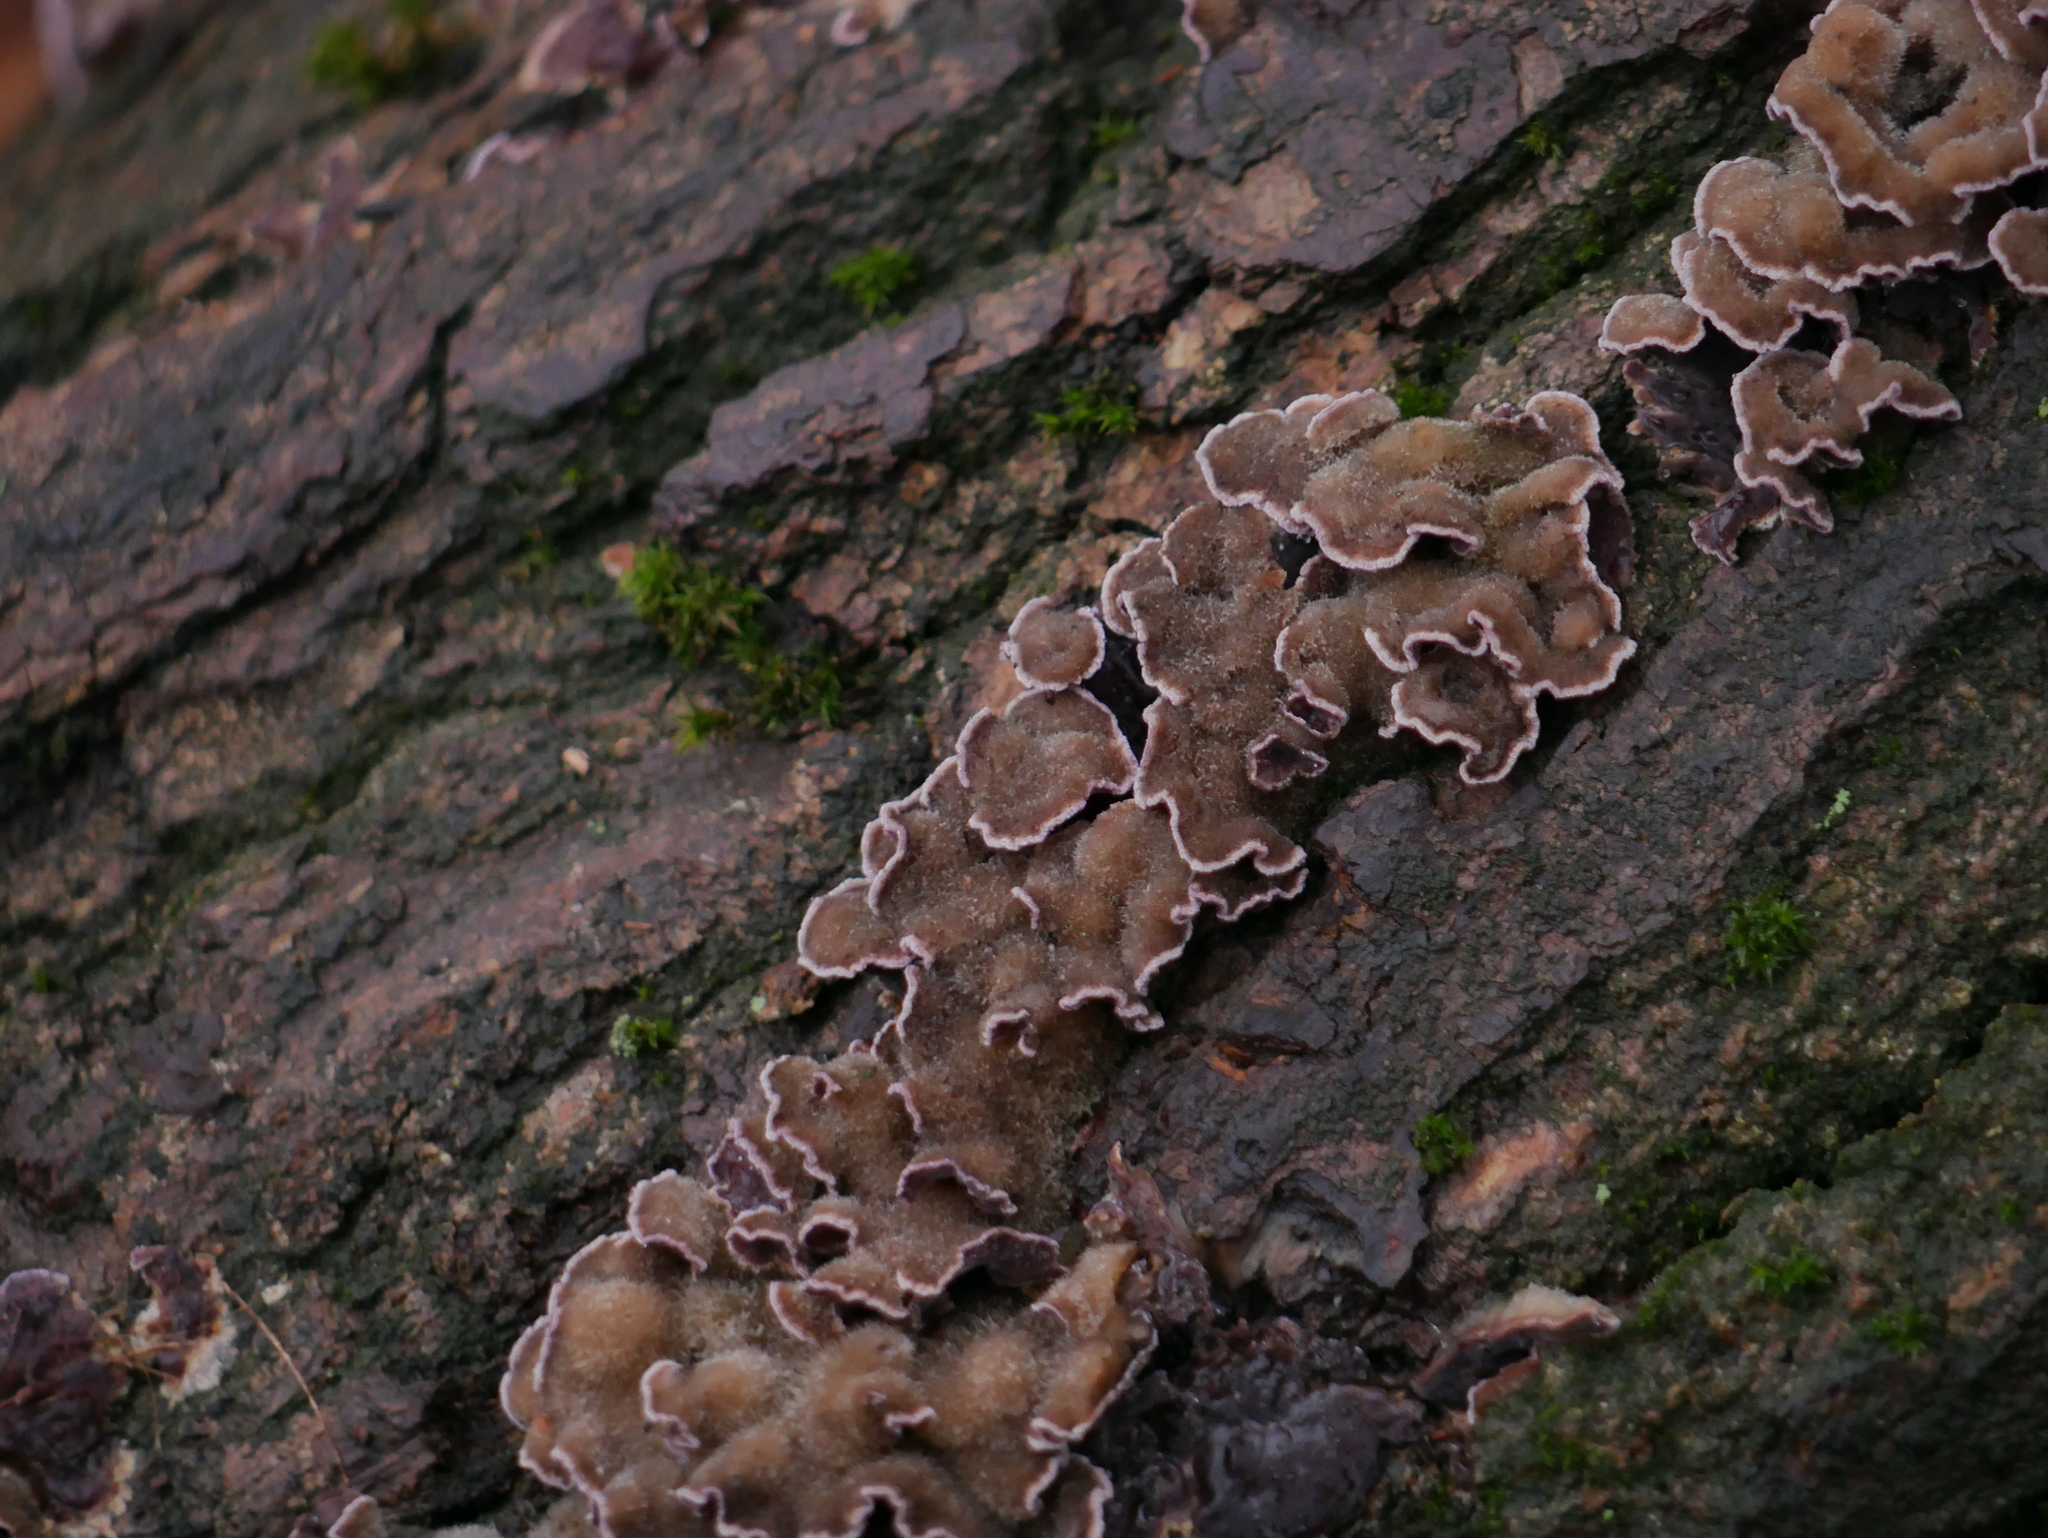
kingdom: Fungi
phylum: Basidiomycota
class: Agaricomycetes
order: Agaricales
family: Cyphellaceae
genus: Chondrostereum
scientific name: Chondrostereum purpureum
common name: Silver leaf disease
